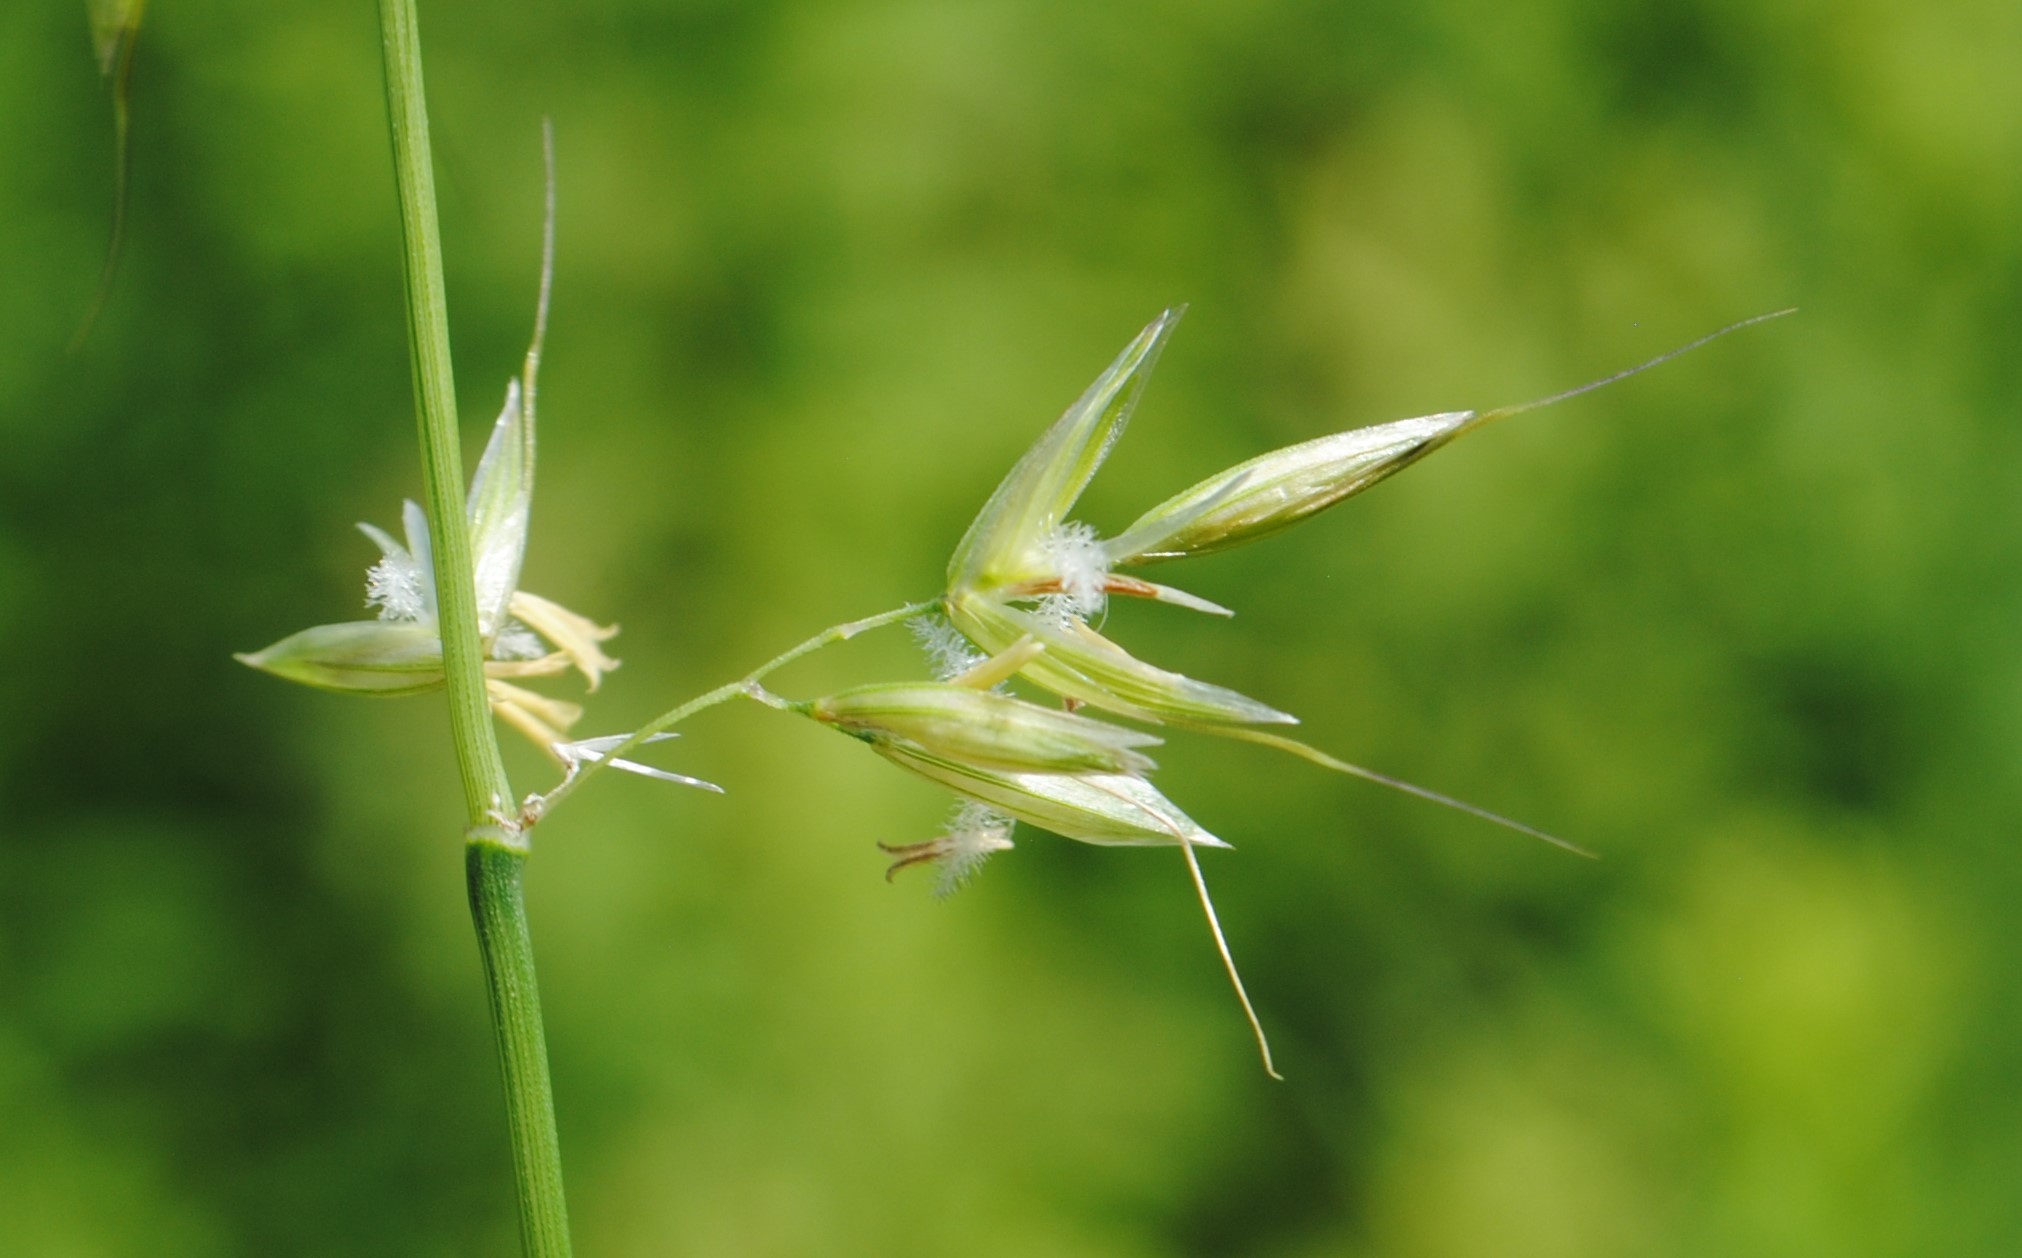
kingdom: Plantae
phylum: Tracheophyta
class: Liliopsida
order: Poales
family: Poaceae
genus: Arrhenatherum
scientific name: Arrhenatherum elatius
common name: Tall oatgrass
